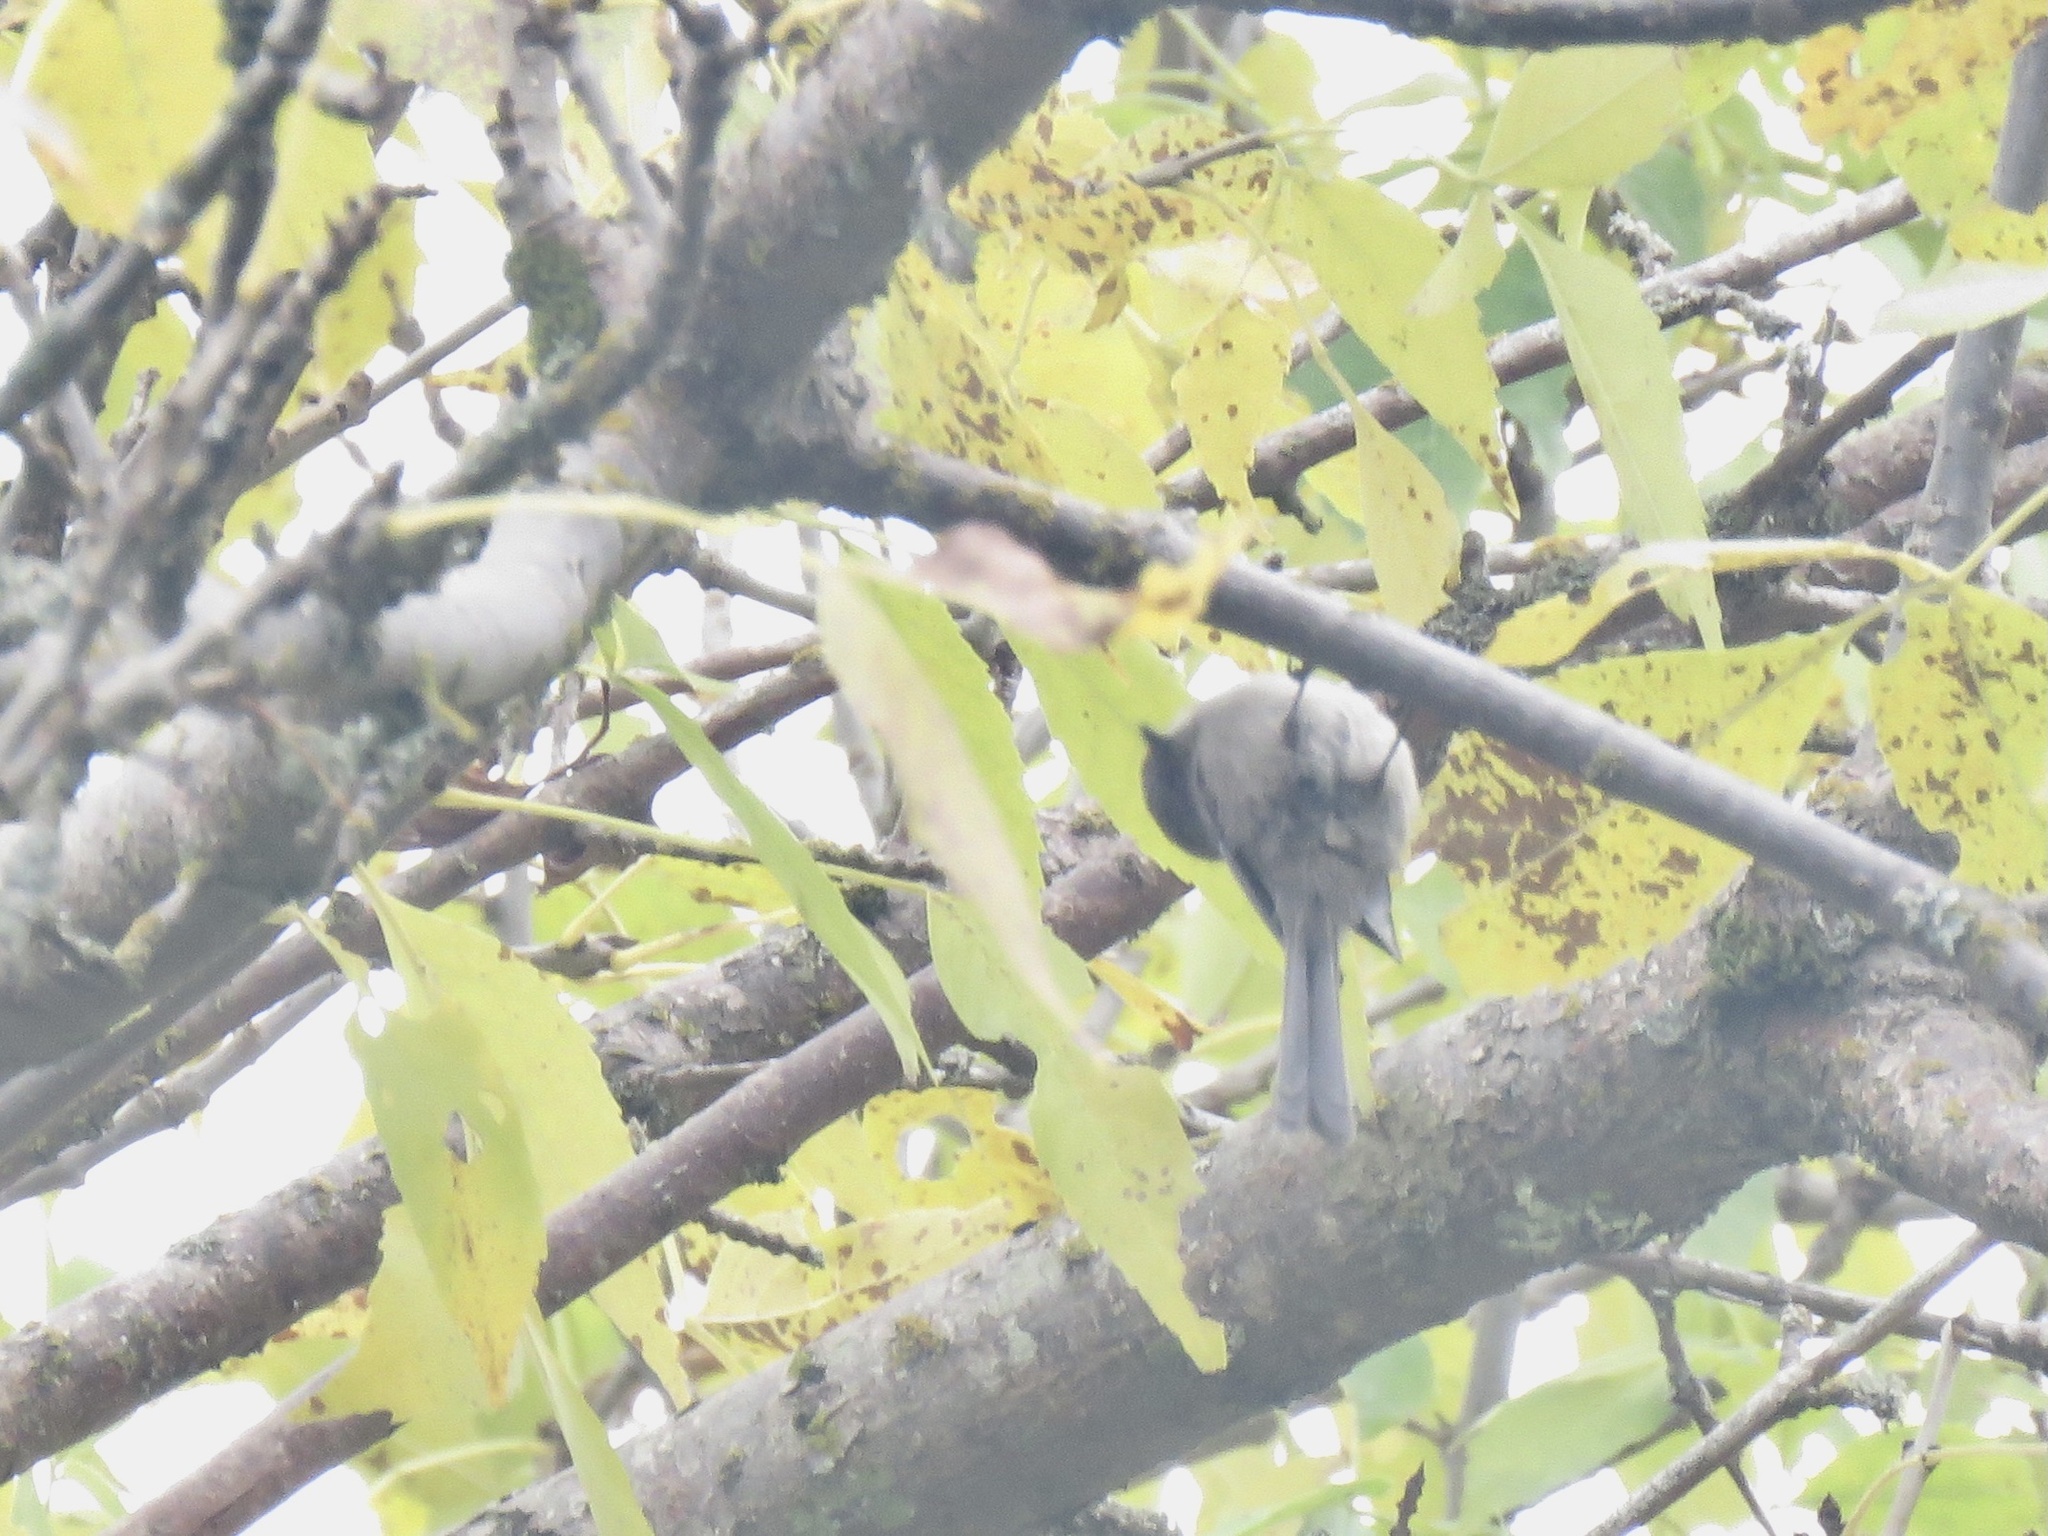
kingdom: Animalia
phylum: Chordata
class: Aves
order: Passeriformes
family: Aegithalidae
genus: Psaltriparus
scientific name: Psaltriparus minimus
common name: American bushtit
